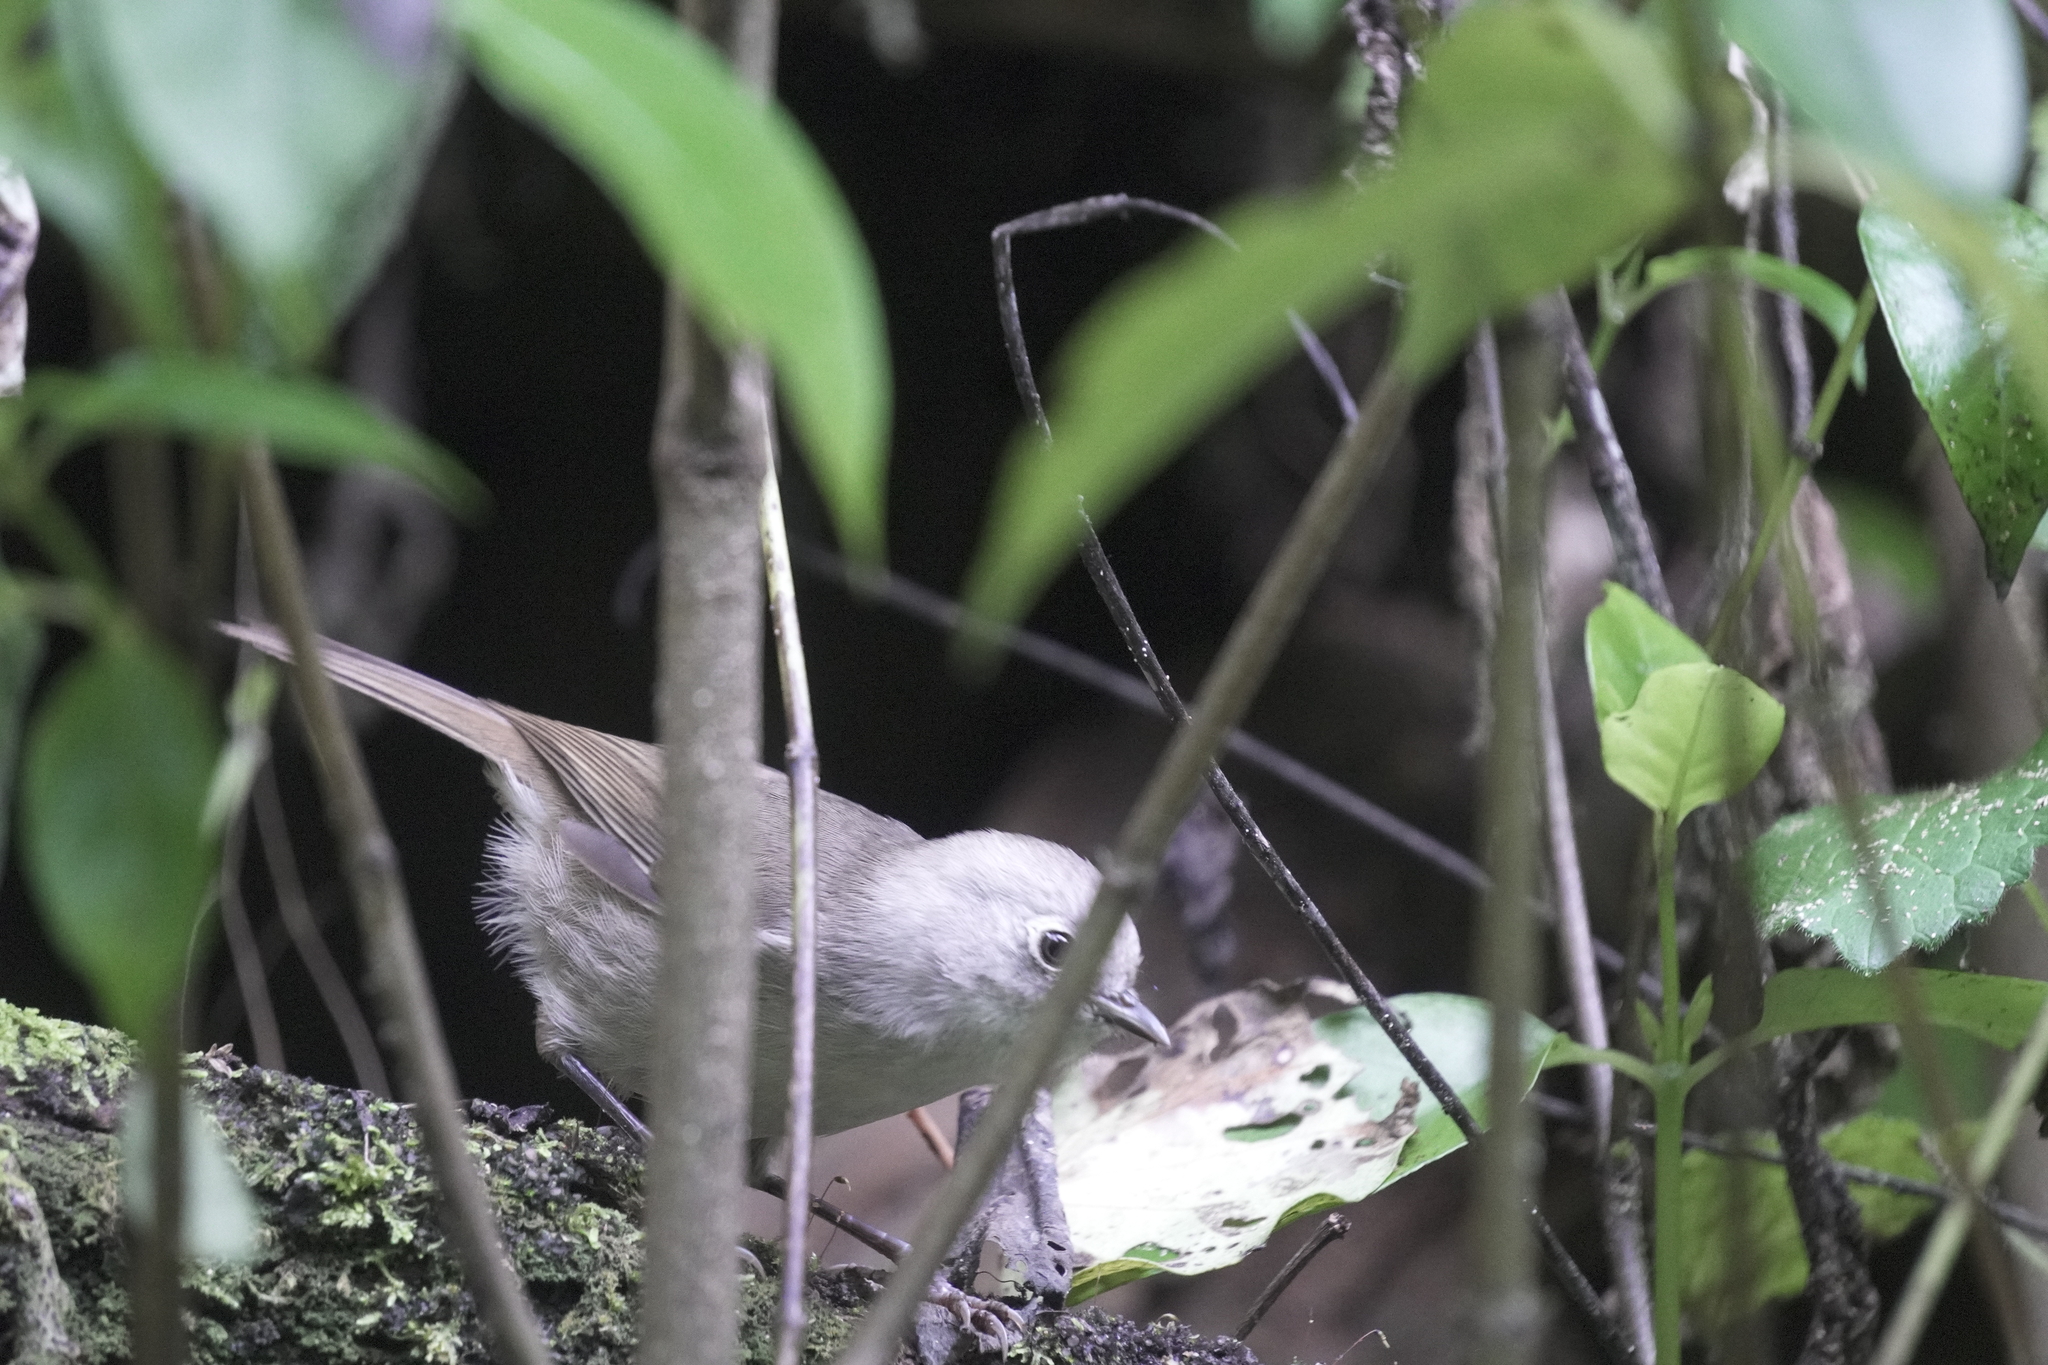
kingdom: Animalia
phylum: Chordata
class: Aves
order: Passeriformes
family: Acanthizidae
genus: Mohoua
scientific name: Mohoua albicilla
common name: Whitehead
